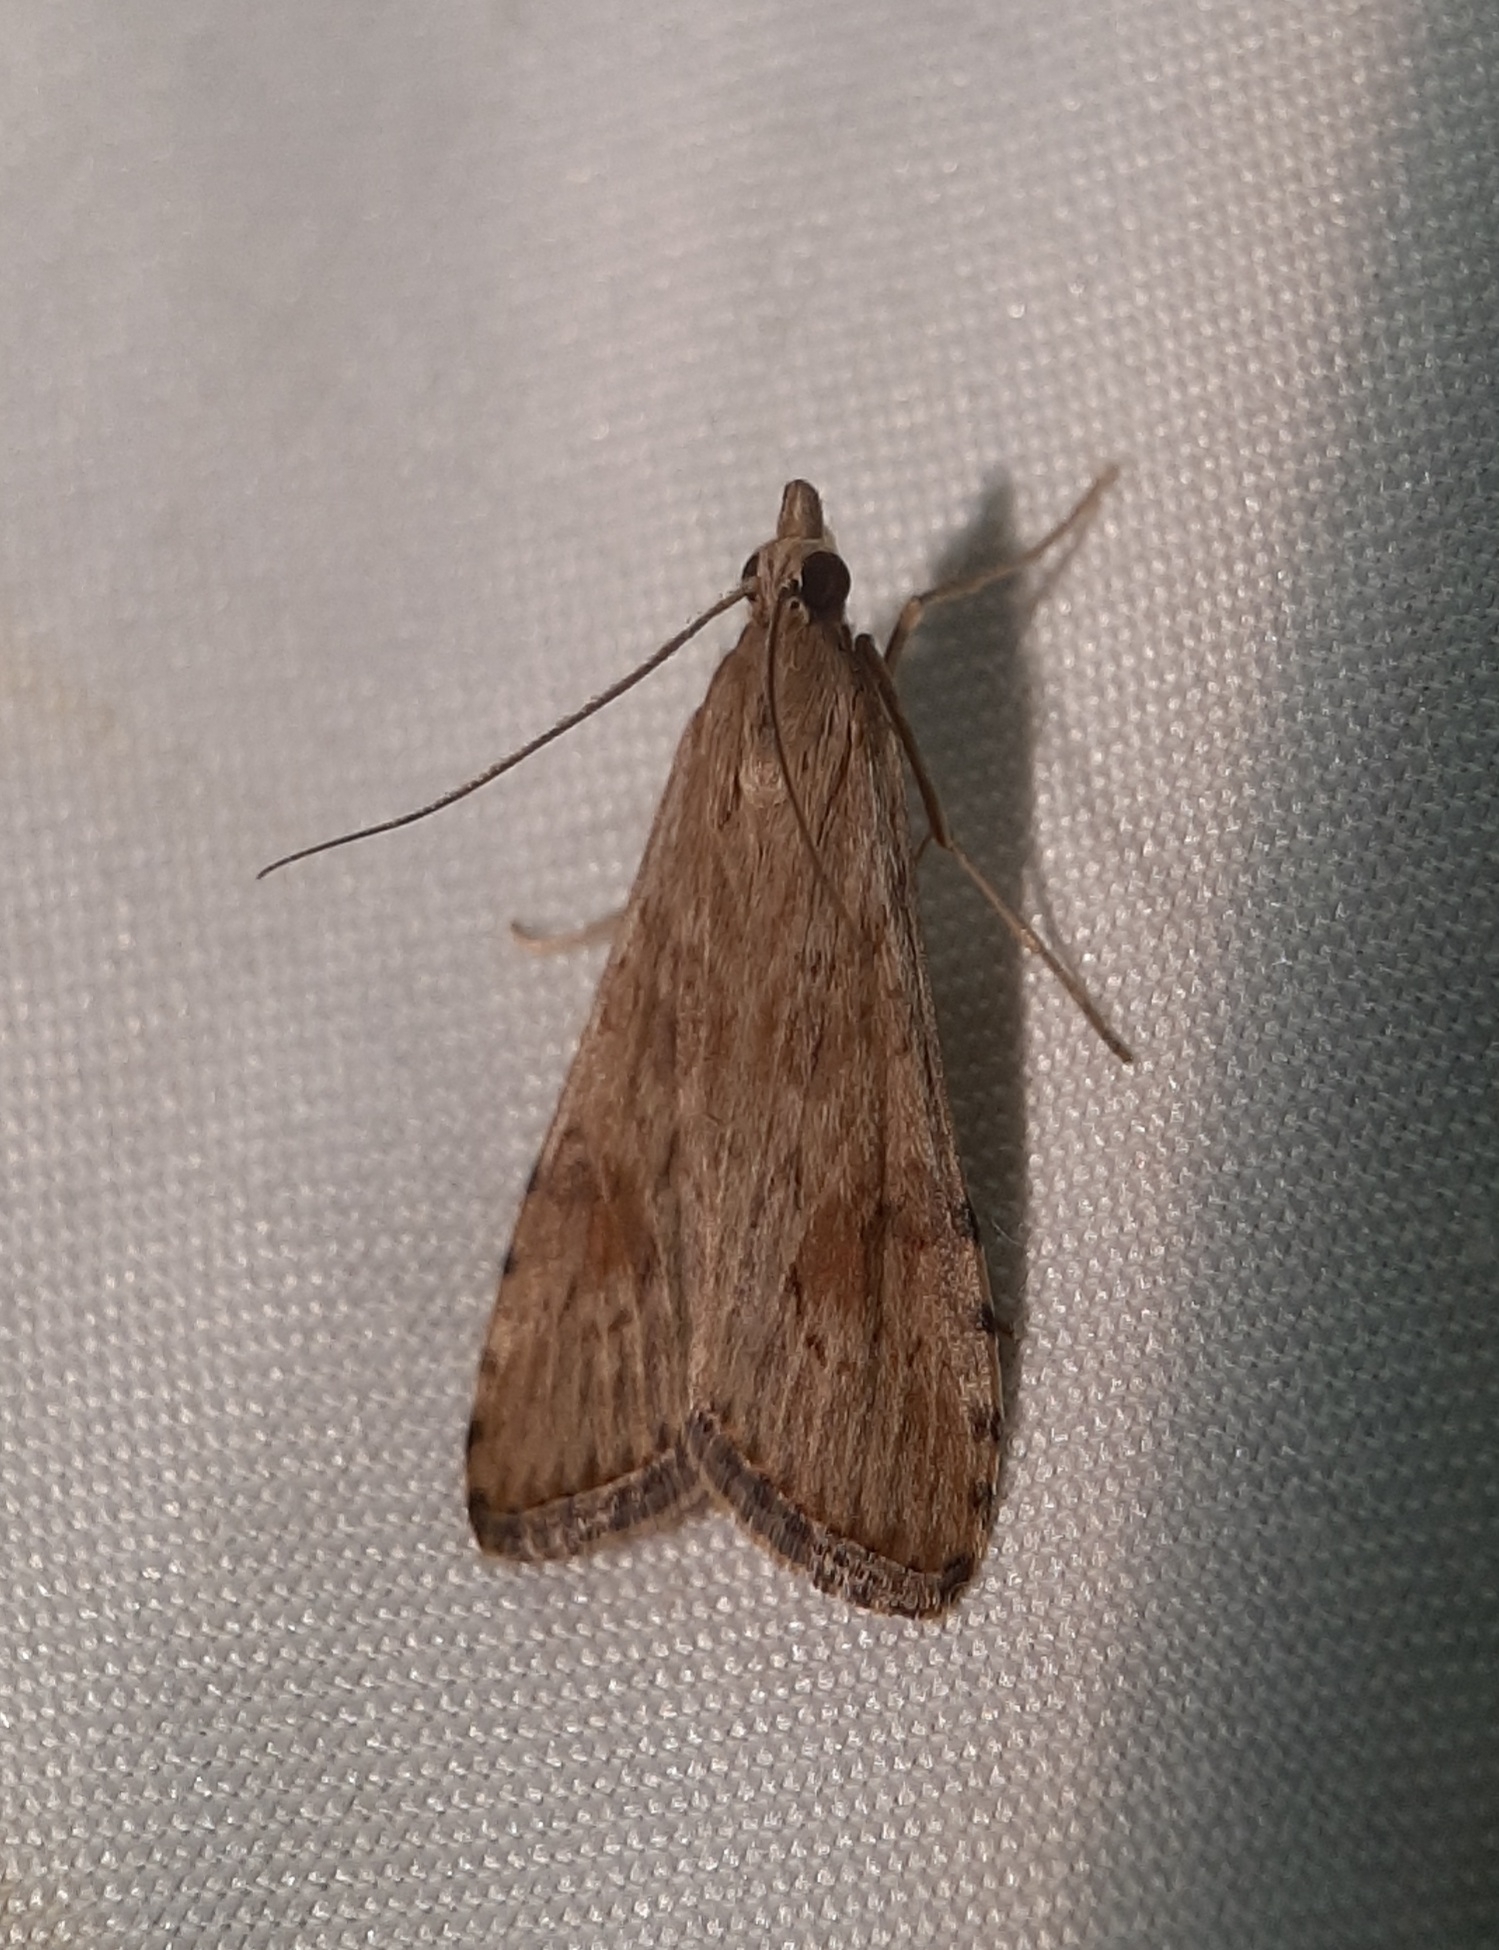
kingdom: Animalia
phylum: Arthropoda
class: Insecta
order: Lepidoptera
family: Crambidae
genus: Nomophila
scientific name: Nomophila nearctica
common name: American rush veneer
